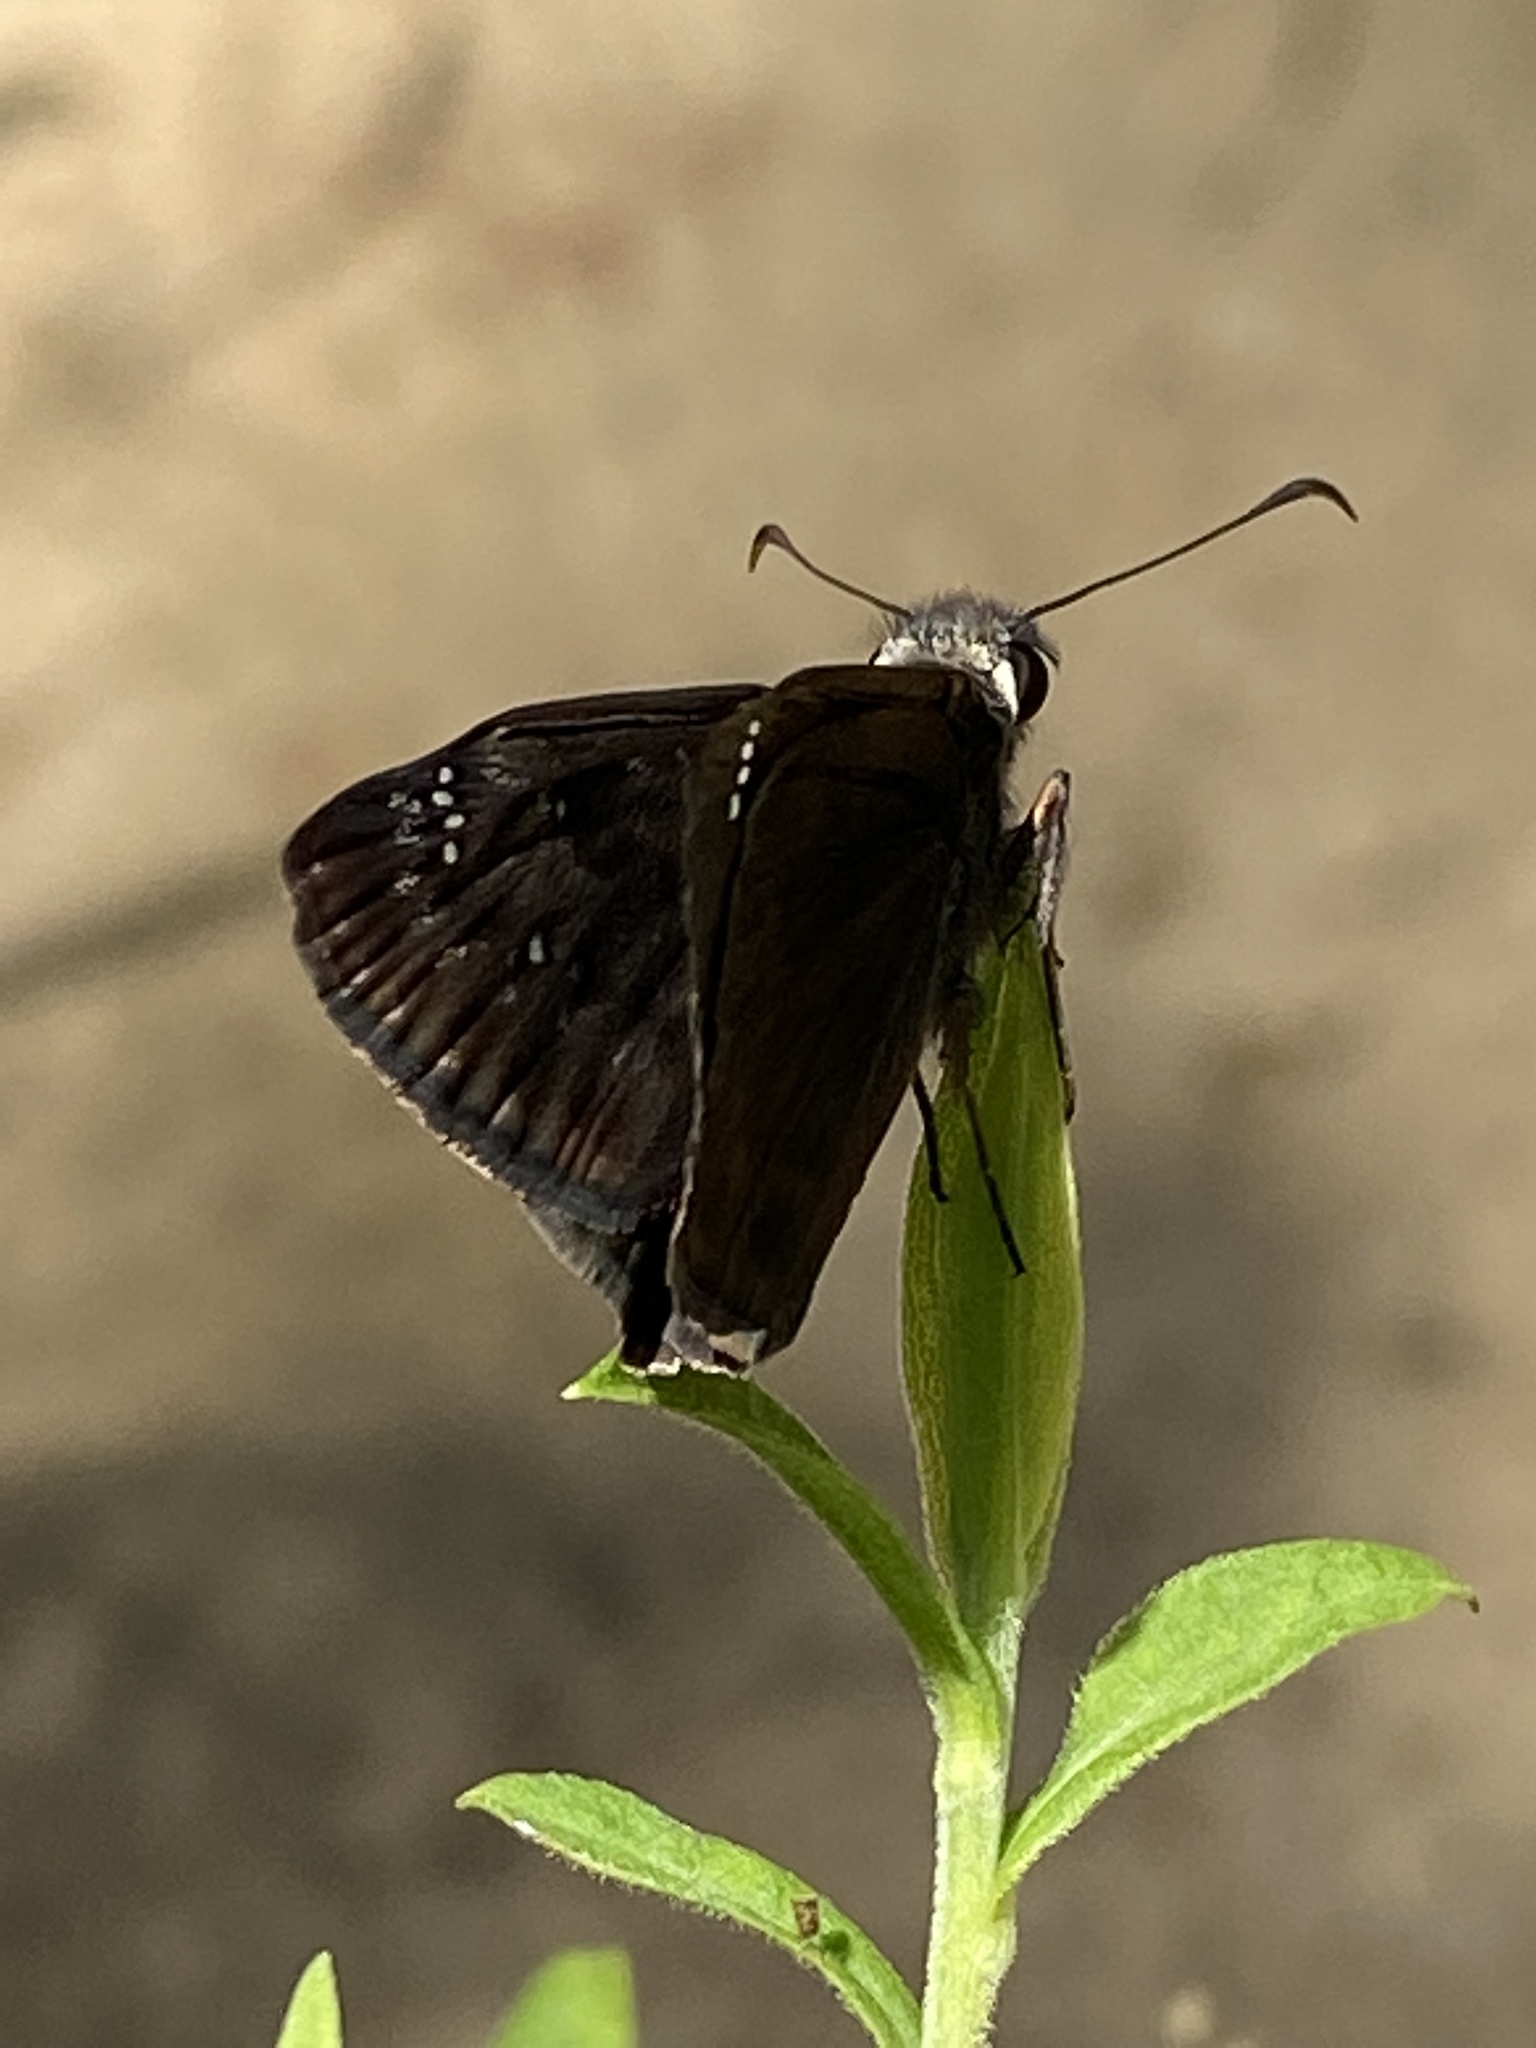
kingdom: Animalia
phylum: Arthropoda
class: Insecta
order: Lepidoptera
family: Hesperiidae
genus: Erynnis
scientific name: Erynnis baptisiae
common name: Wild indigo duskywing
